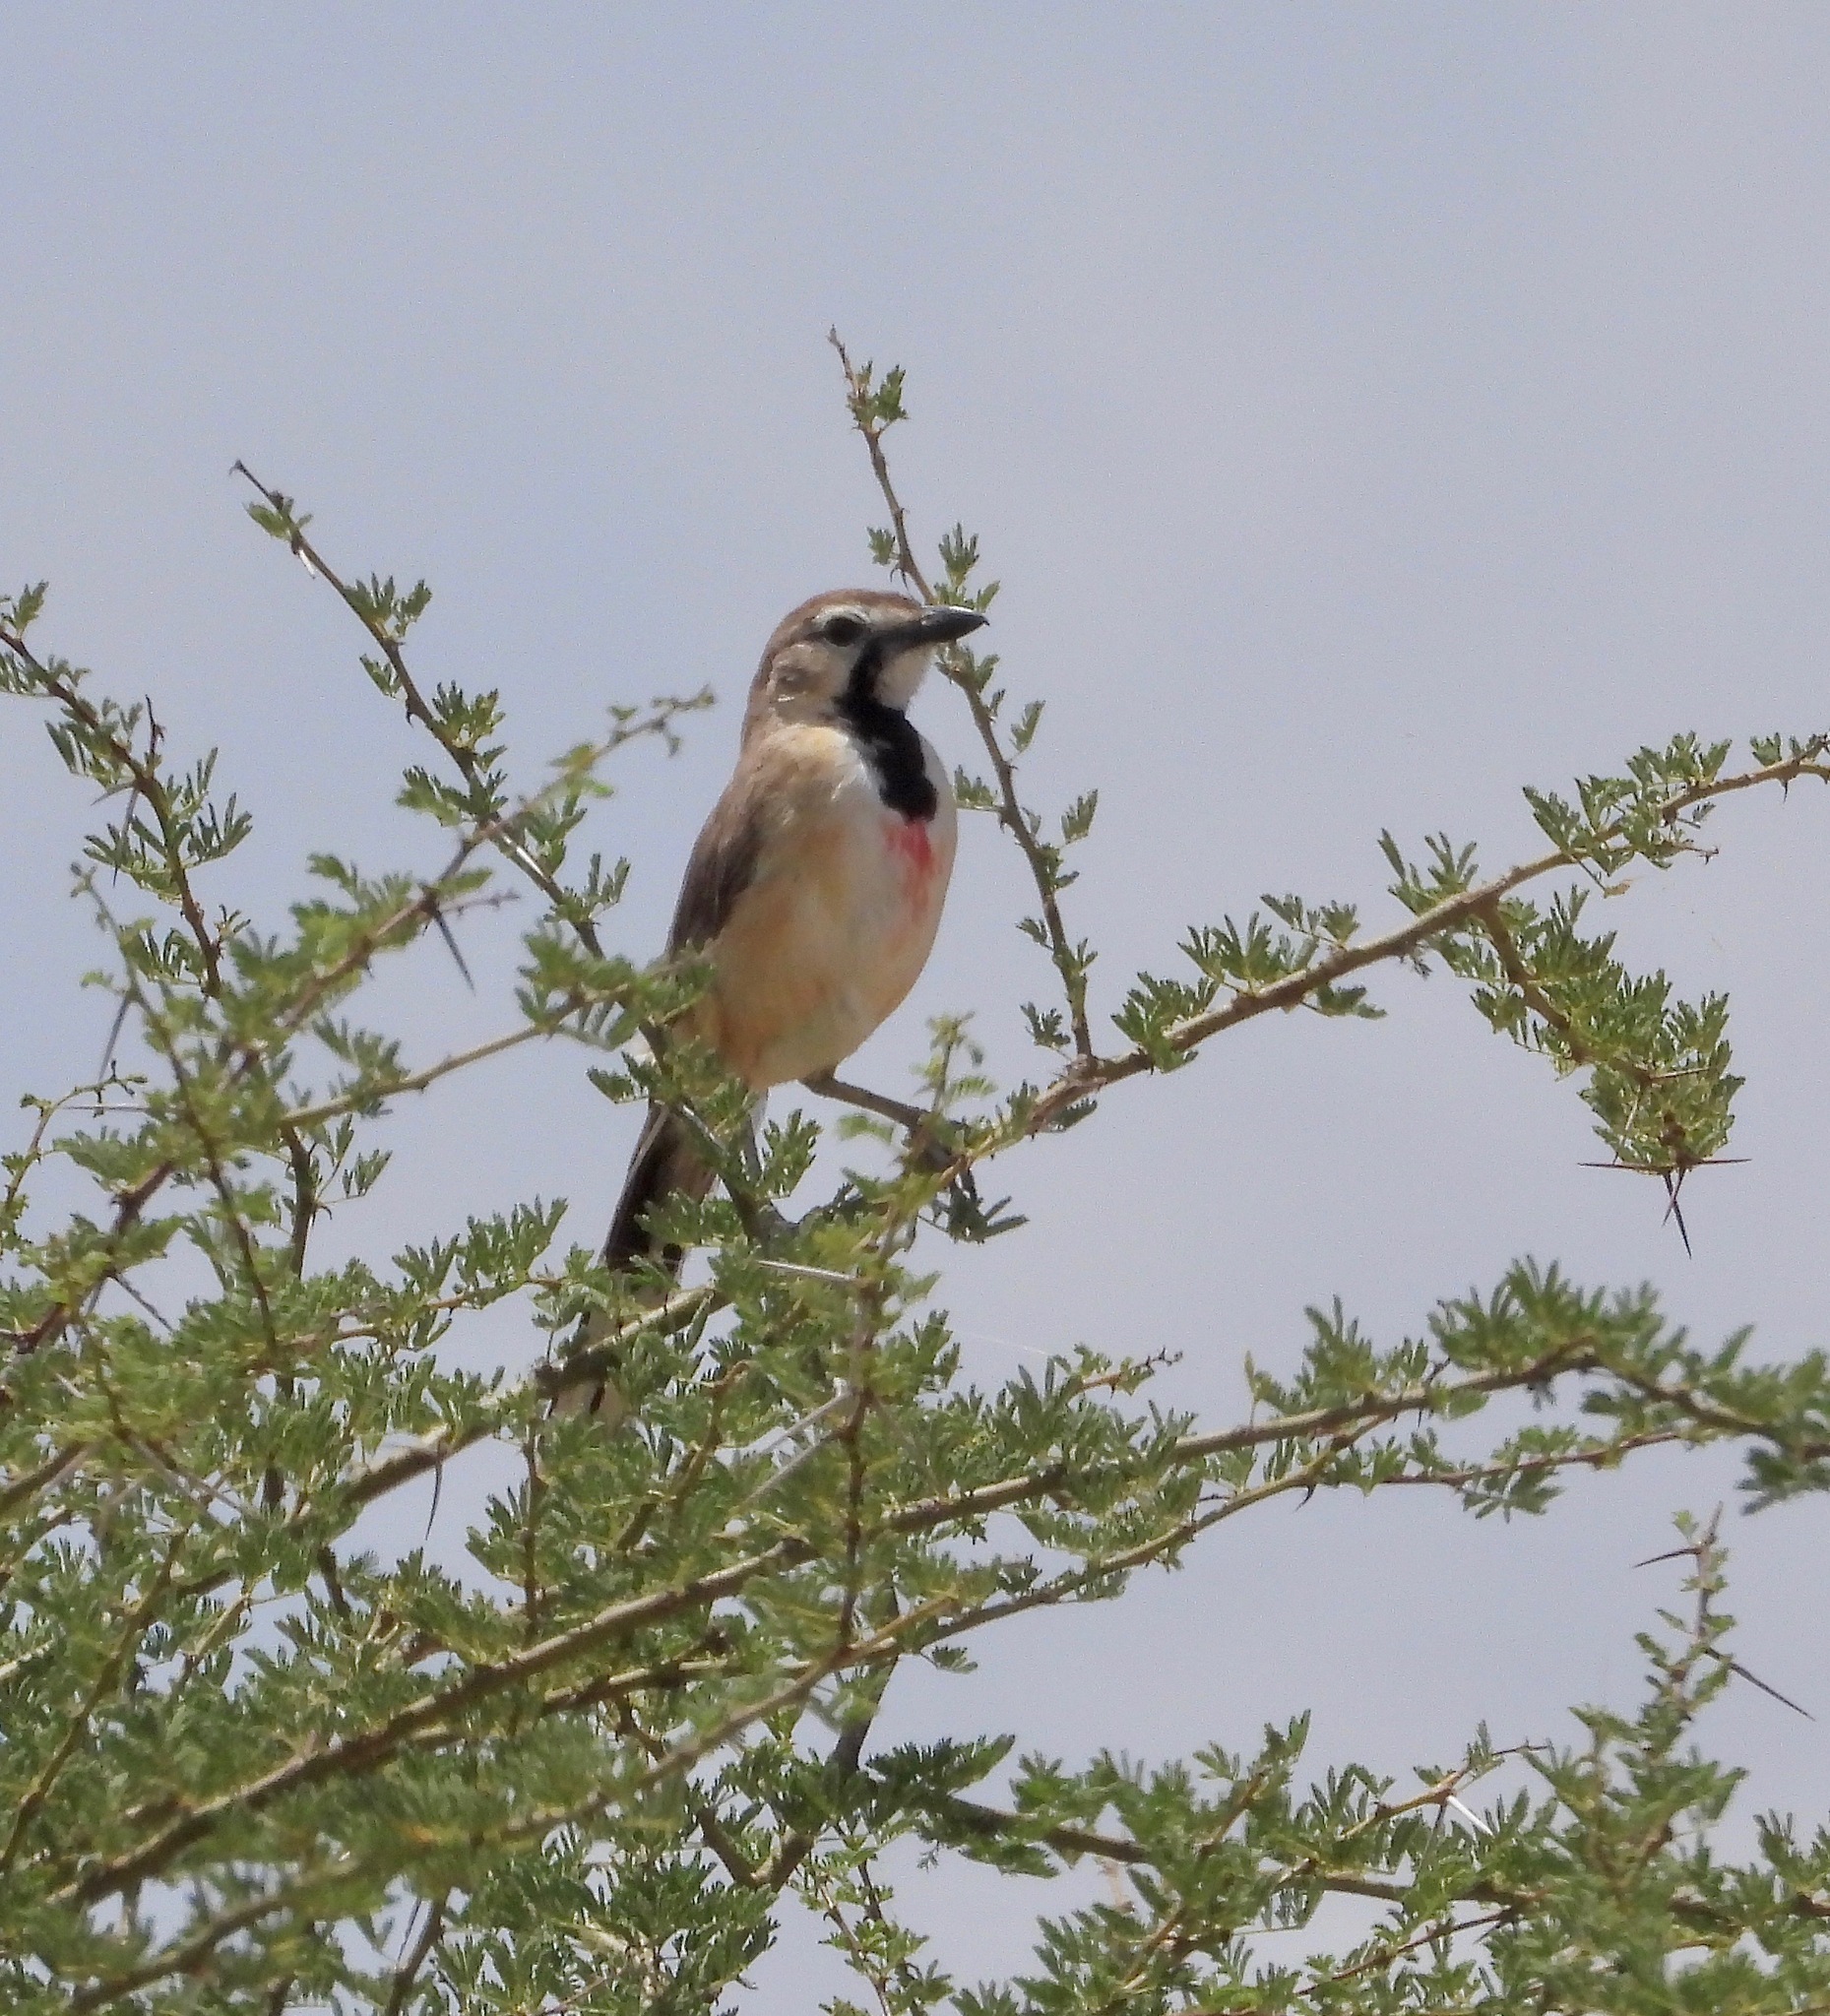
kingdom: Animalia
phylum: Chordata
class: Aves
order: Passeriformes
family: Malaconotidae
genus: Telophorus
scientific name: Telophorus cruentus
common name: Rosy-patched bushshrike
